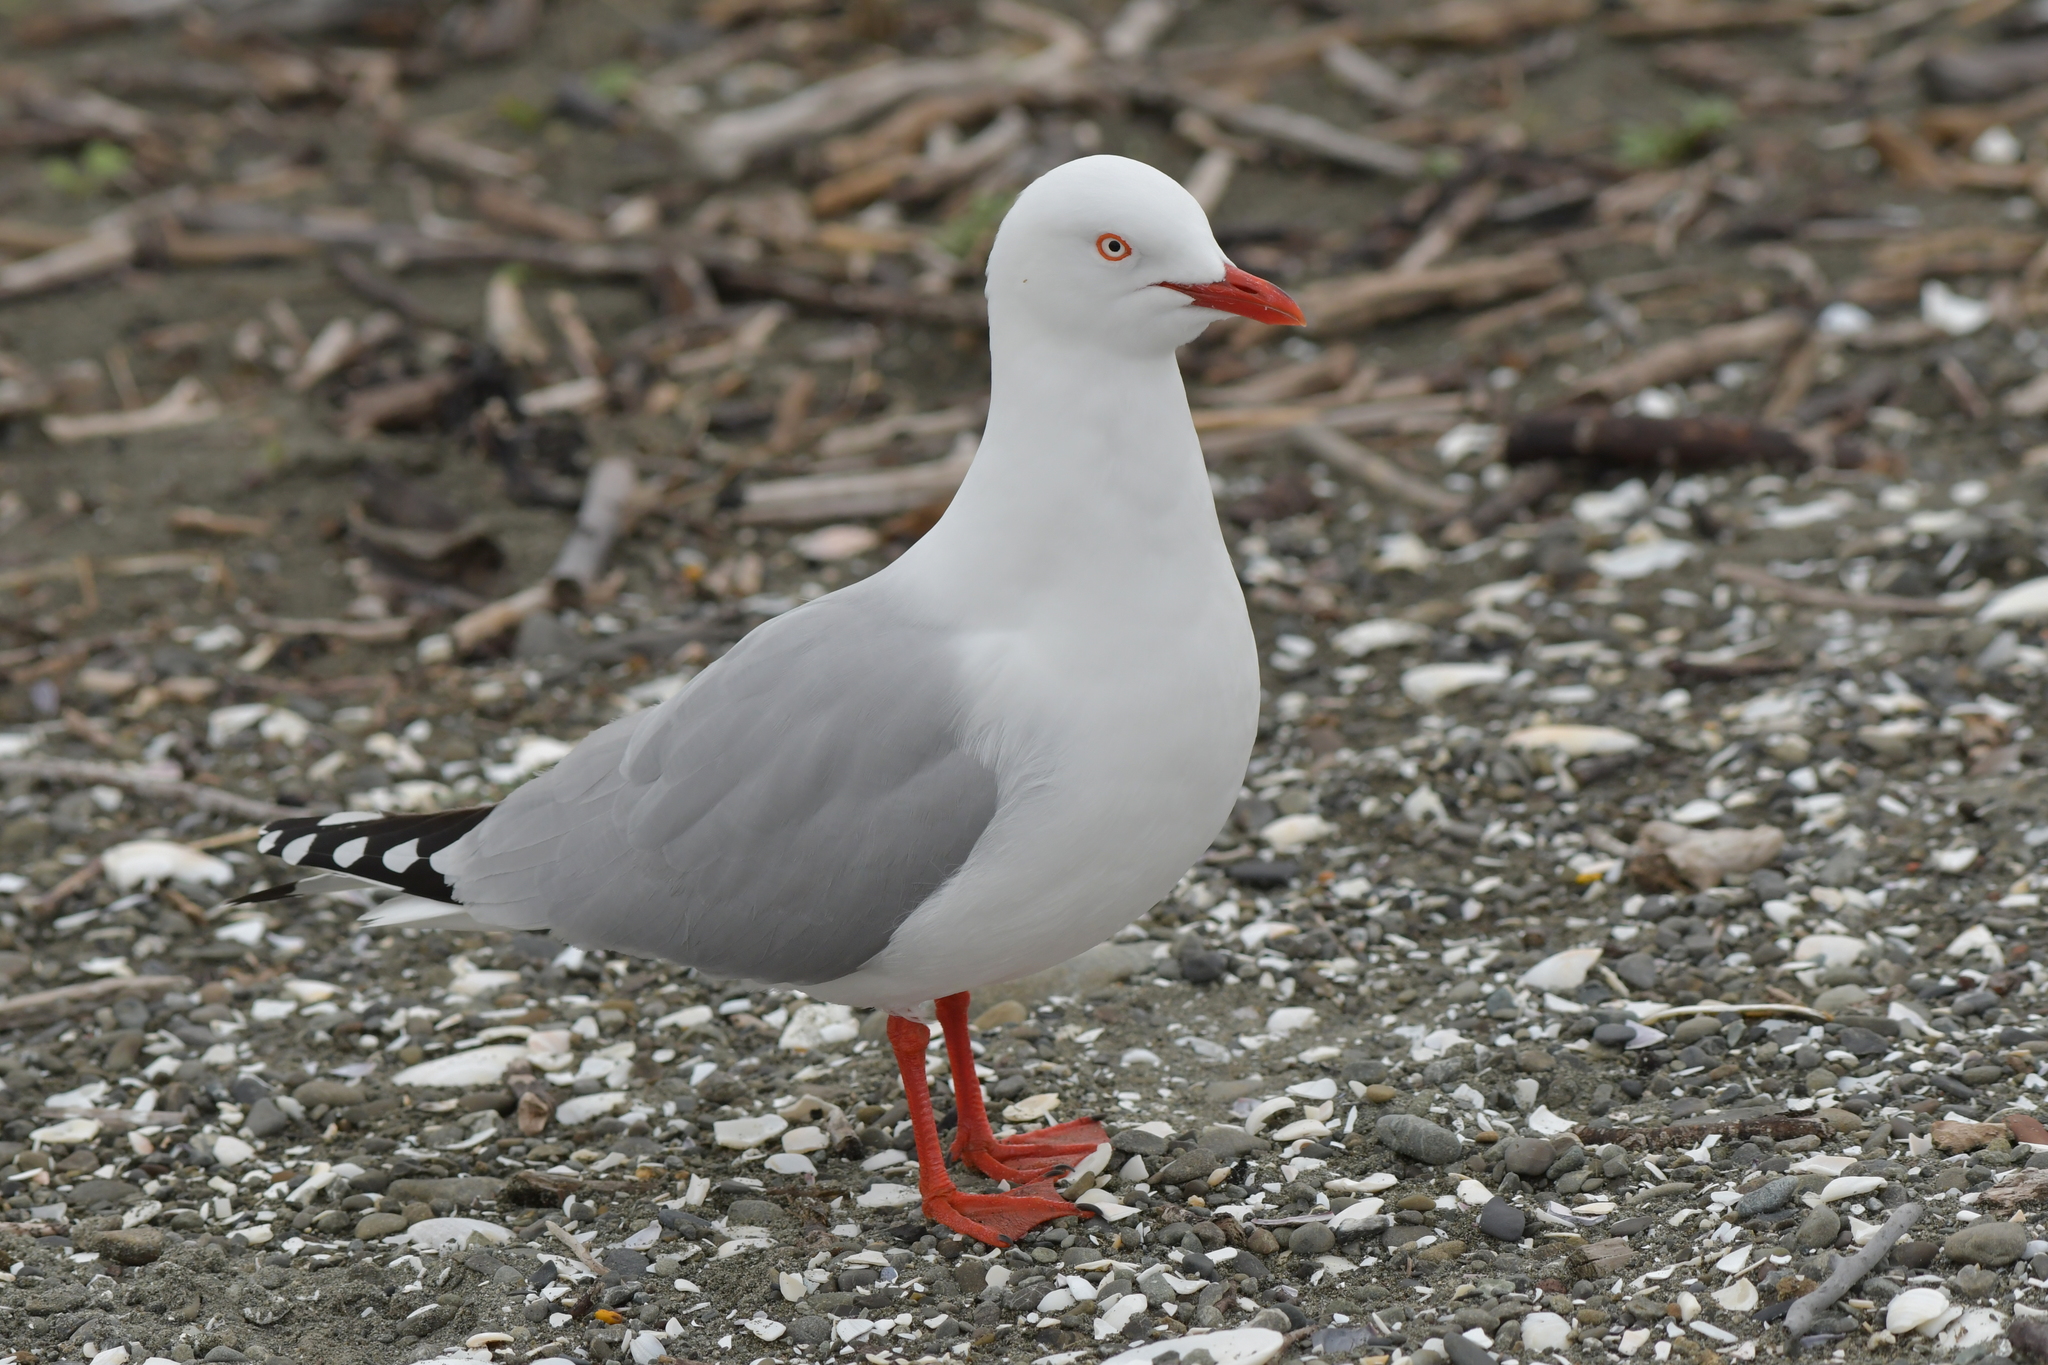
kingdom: Animalia
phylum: Chordata
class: Aves
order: Charadriiformes
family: Laridae
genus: Chroicocephalus
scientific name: Chroicocephalus novaehollandiae
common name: Silver gull
